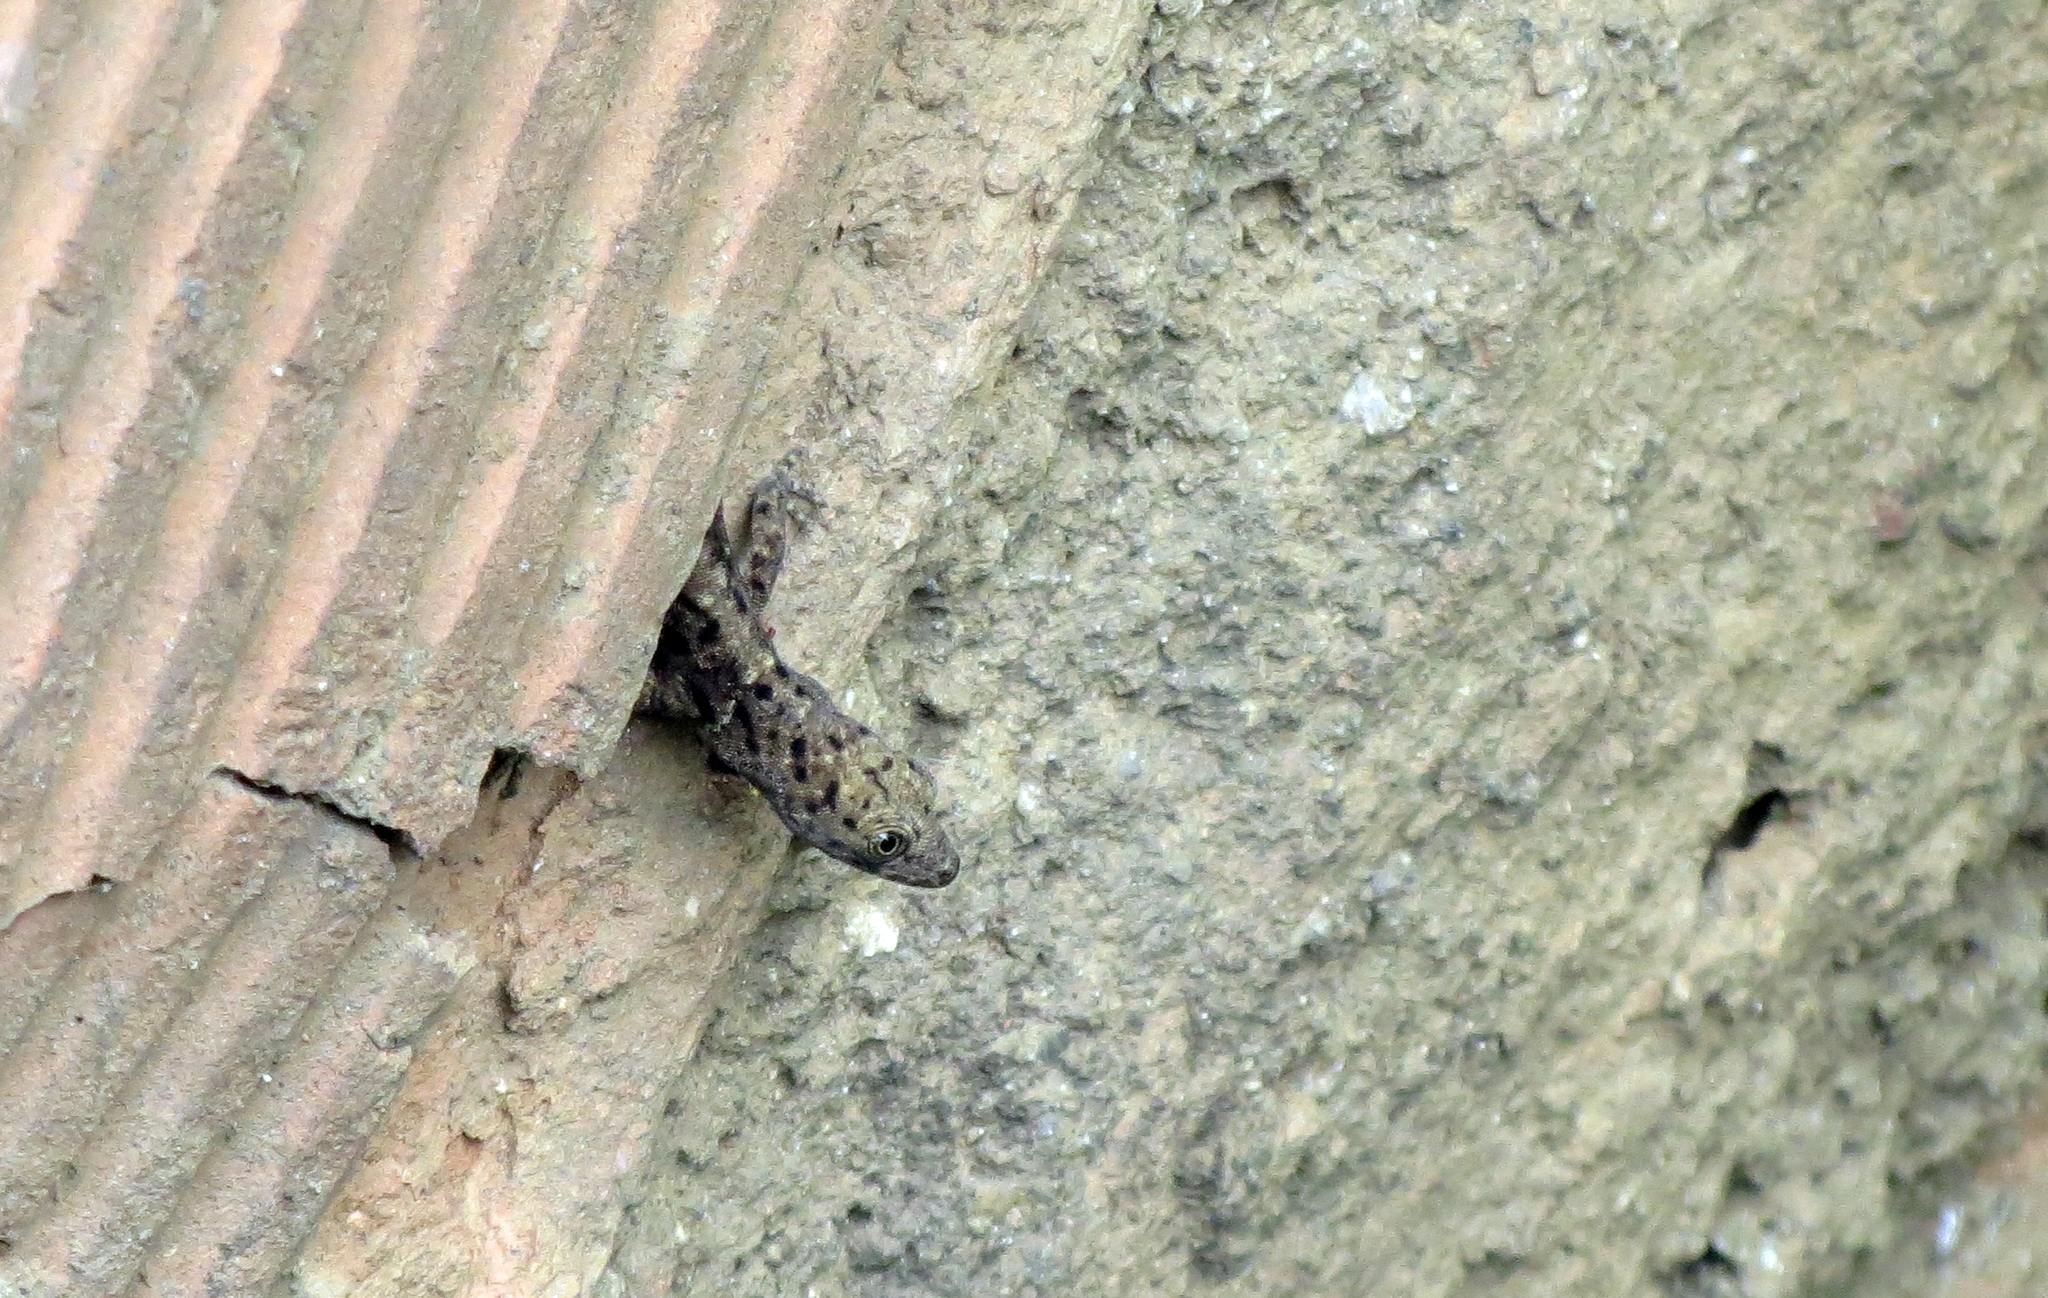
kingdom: Animalia
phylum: Chordata
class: Squamata
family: Sphaerodactylidae
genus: Gonatodes
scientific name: Gonatodes albogularis
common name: Yellow-headed gecko
